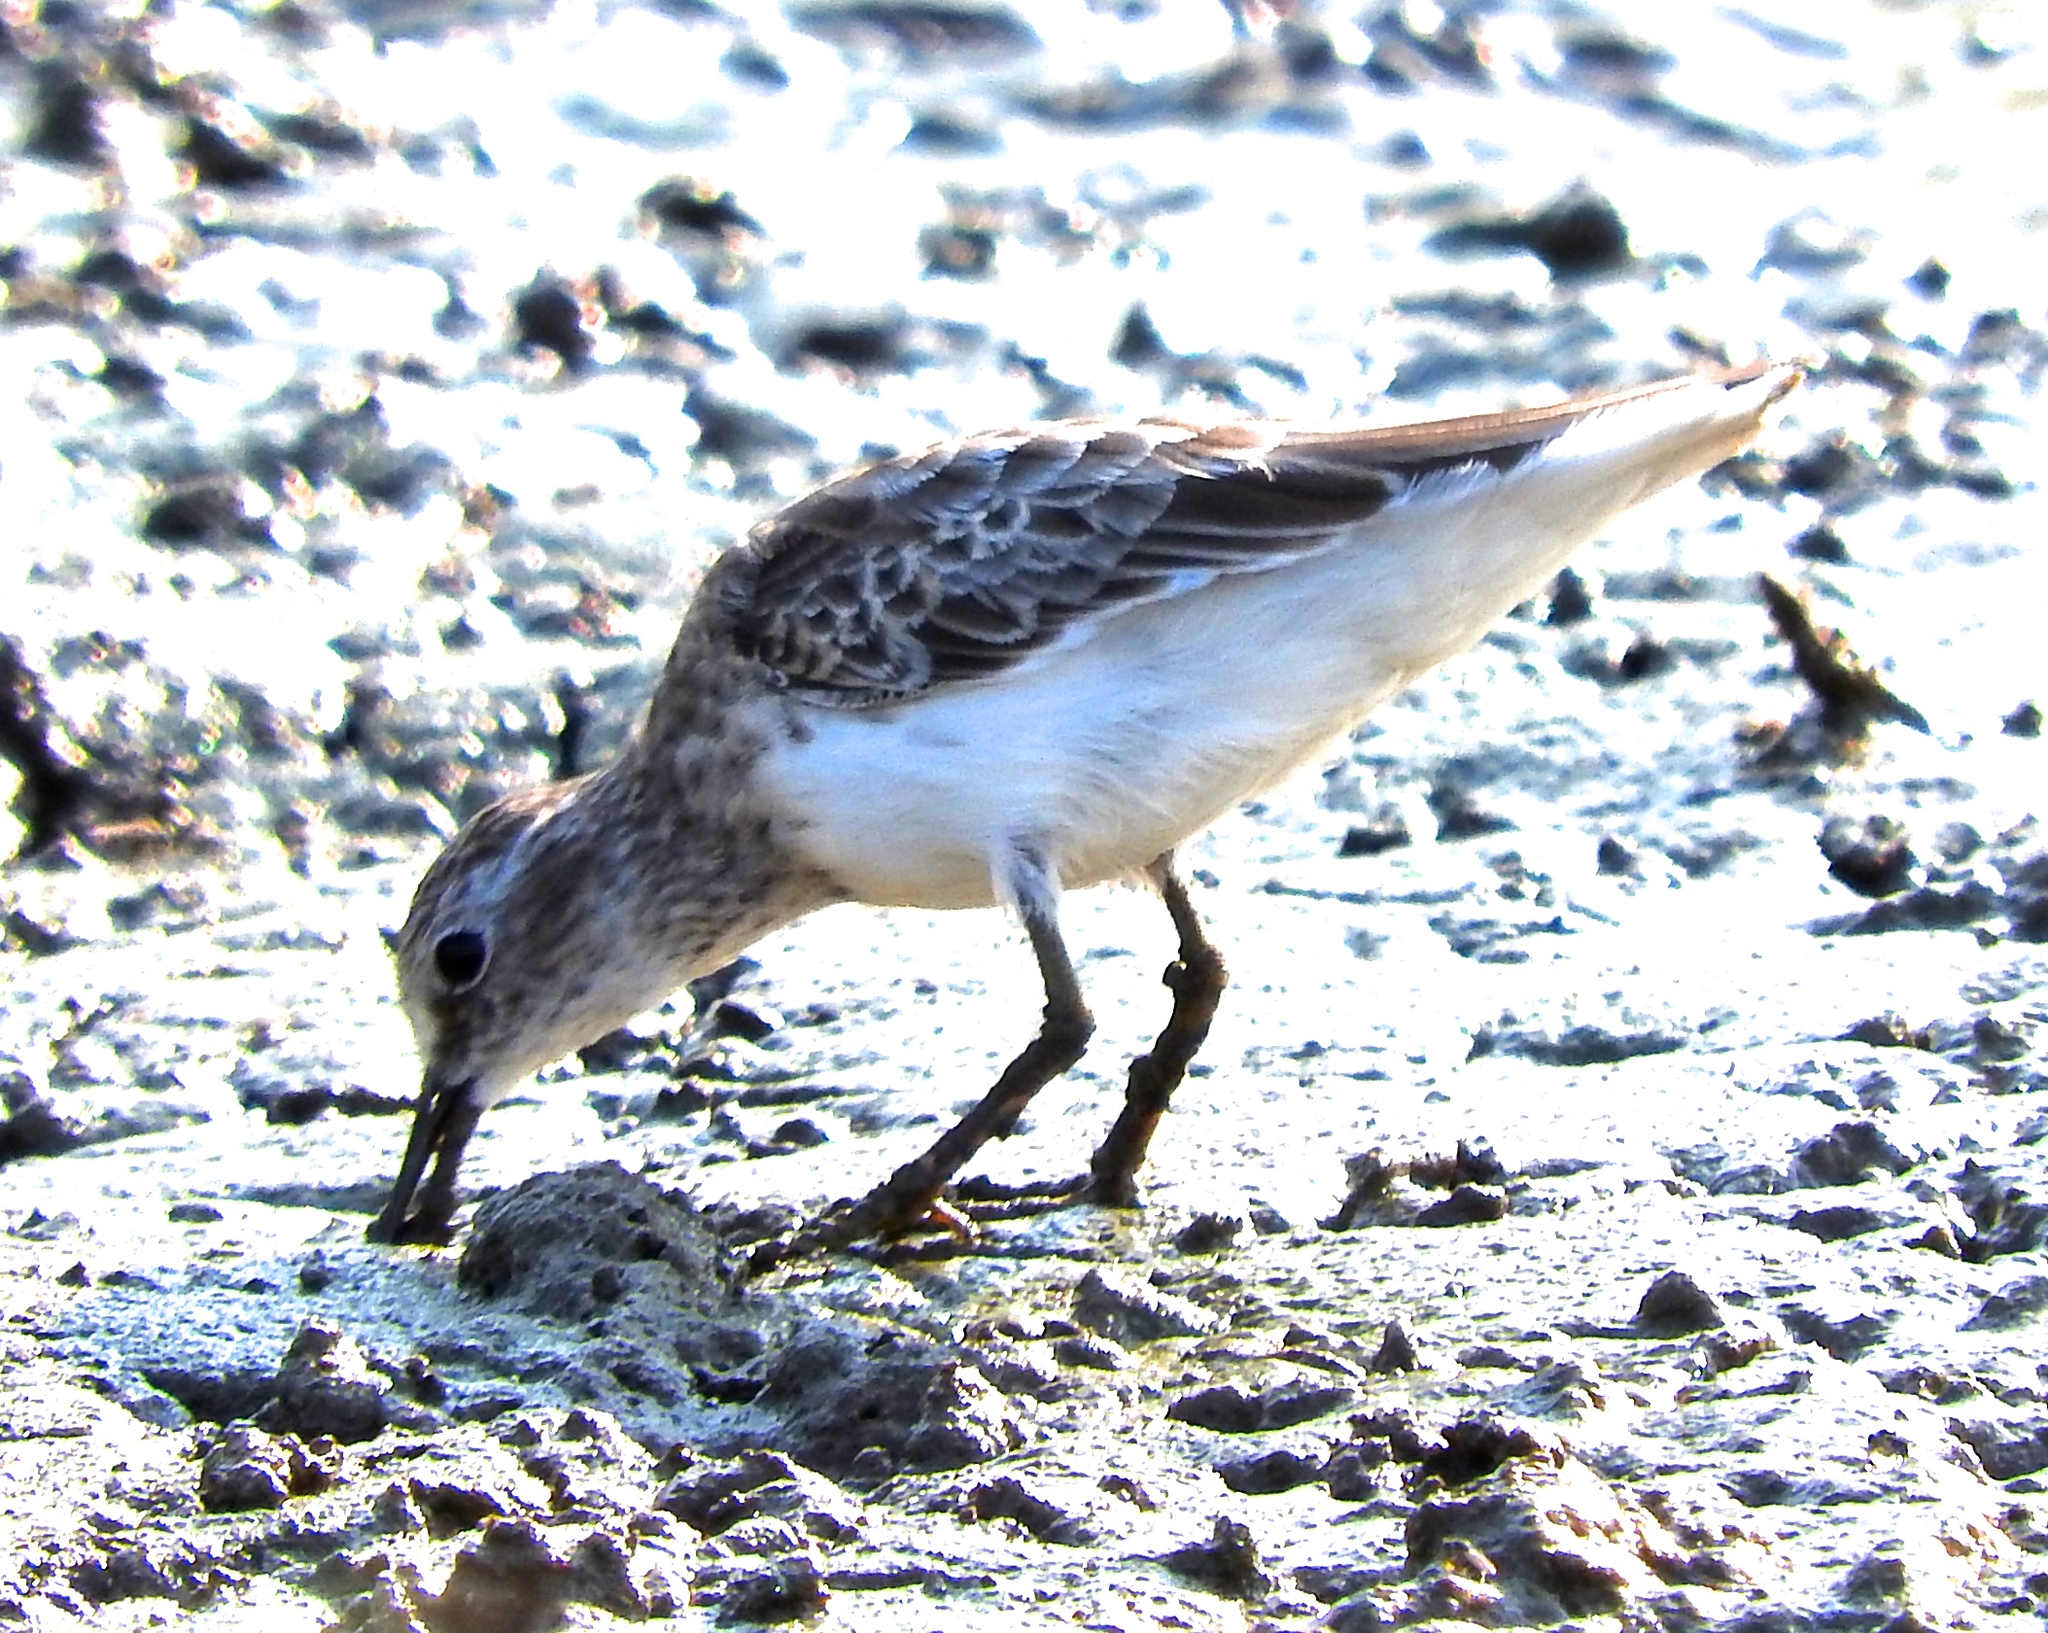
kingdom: Animalia
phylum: Chordata
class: Aves
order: Charadriiformes
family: Scolopacidae
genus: Calidris
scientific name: Calidris minutilla
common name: Least sandpiper
